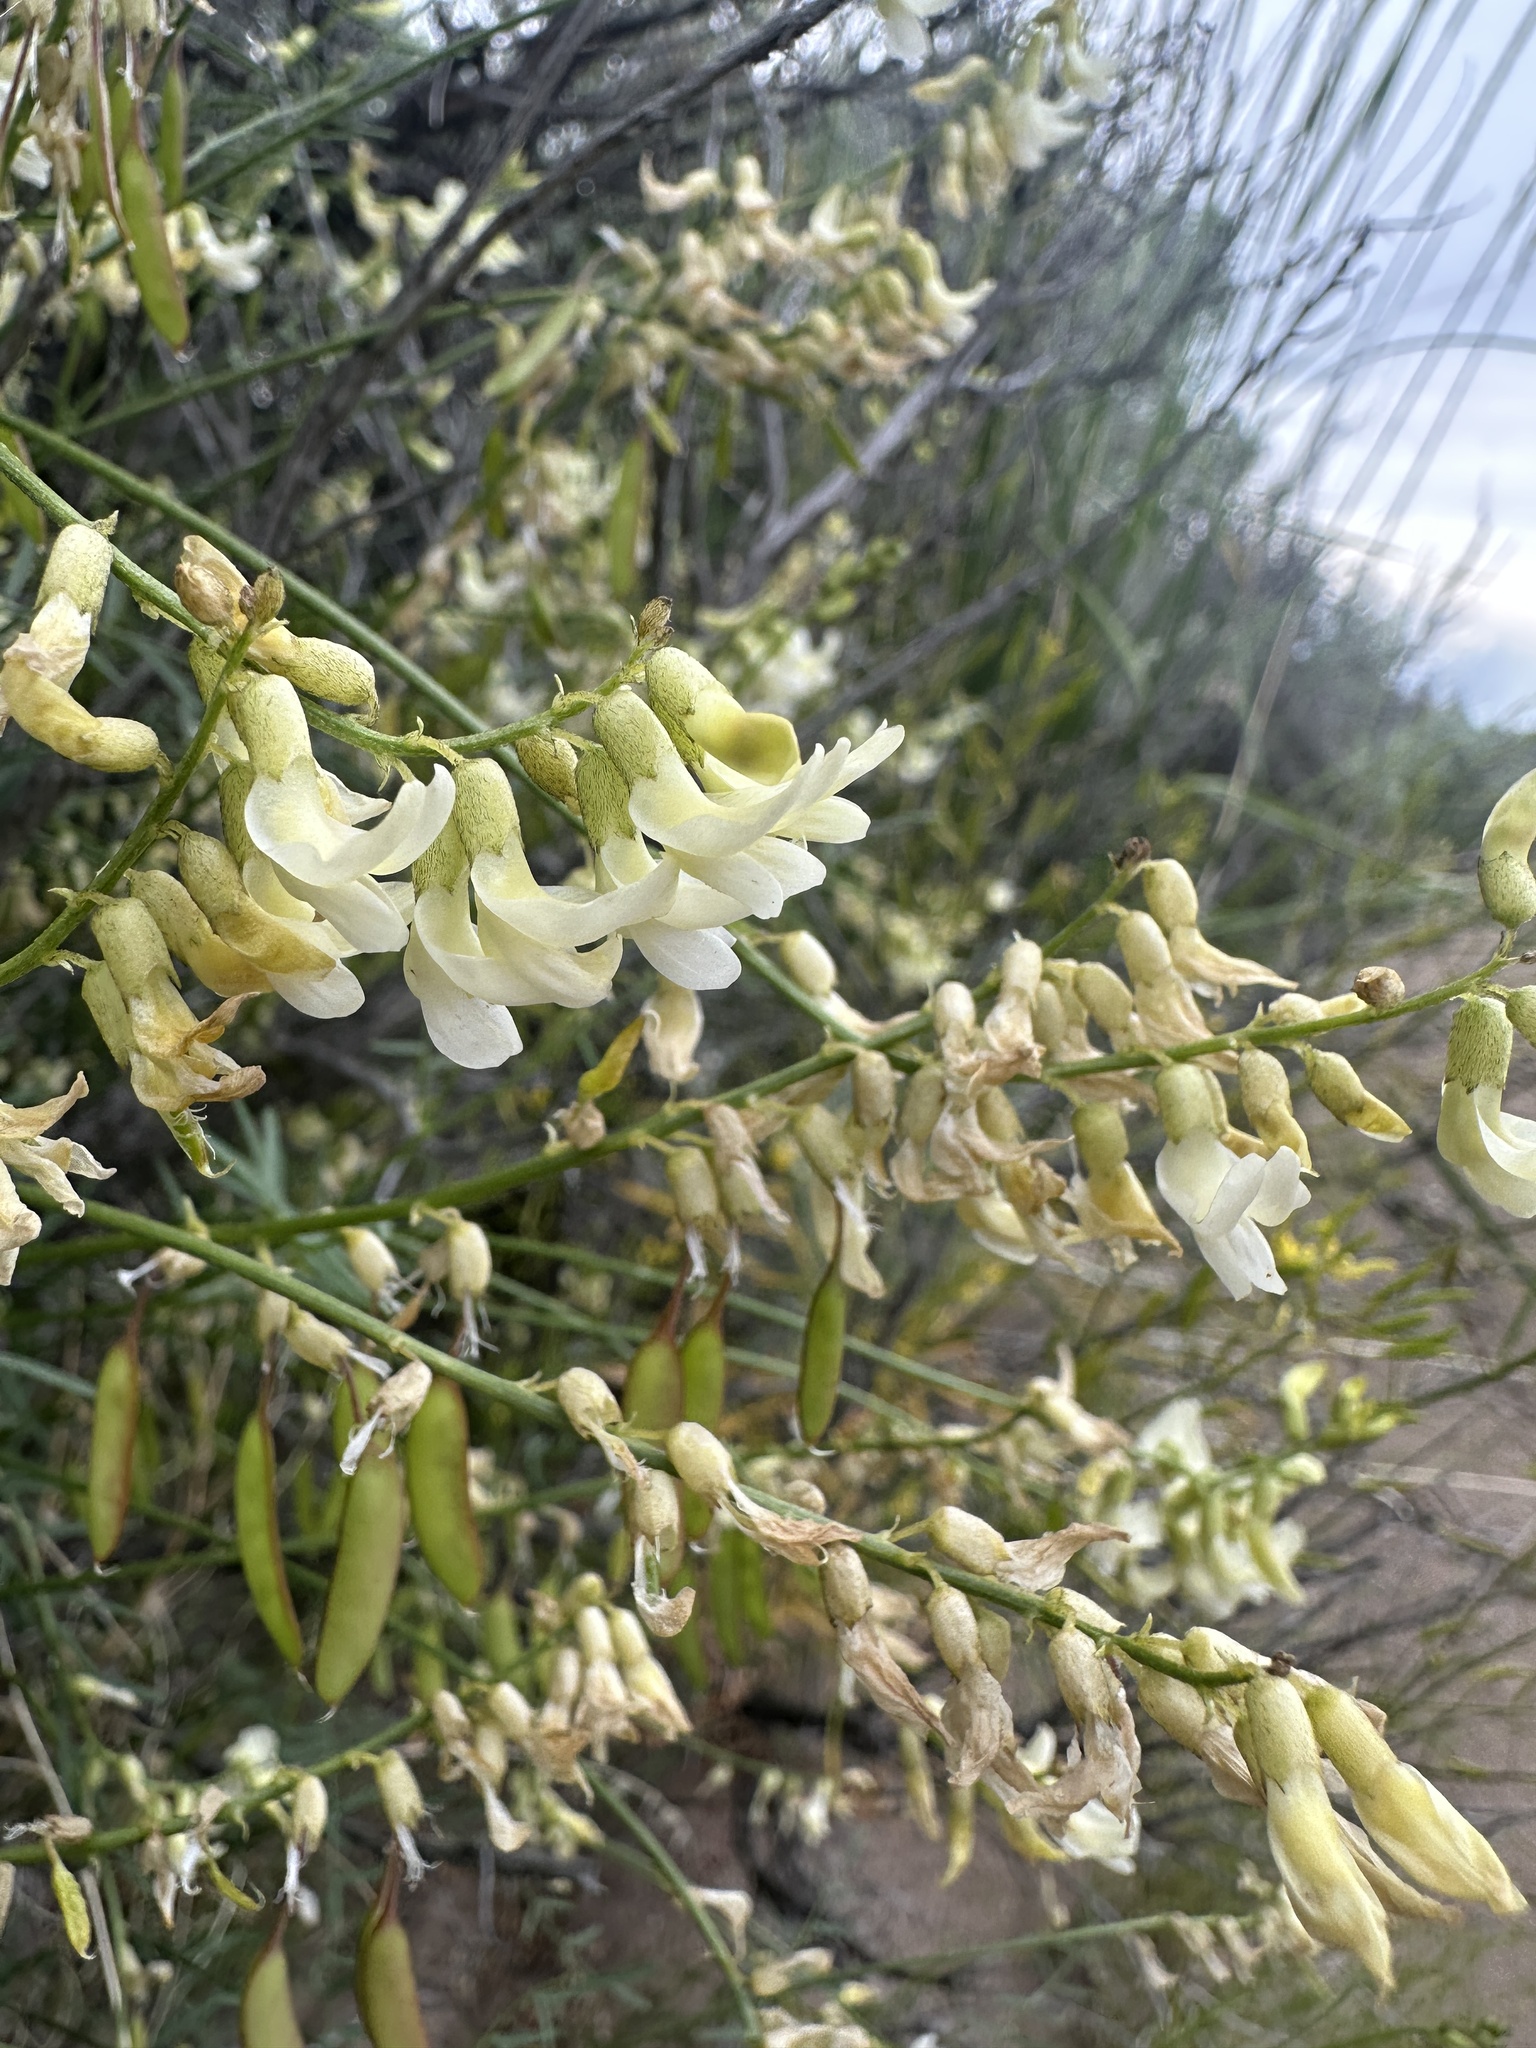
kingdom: Plantae
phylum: Tracheophyta
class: Magnoliopsida
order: Fabales
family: Fabaceae
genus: Astragalus
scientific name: Astragalus filipes
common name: Basalt milk-vetch
